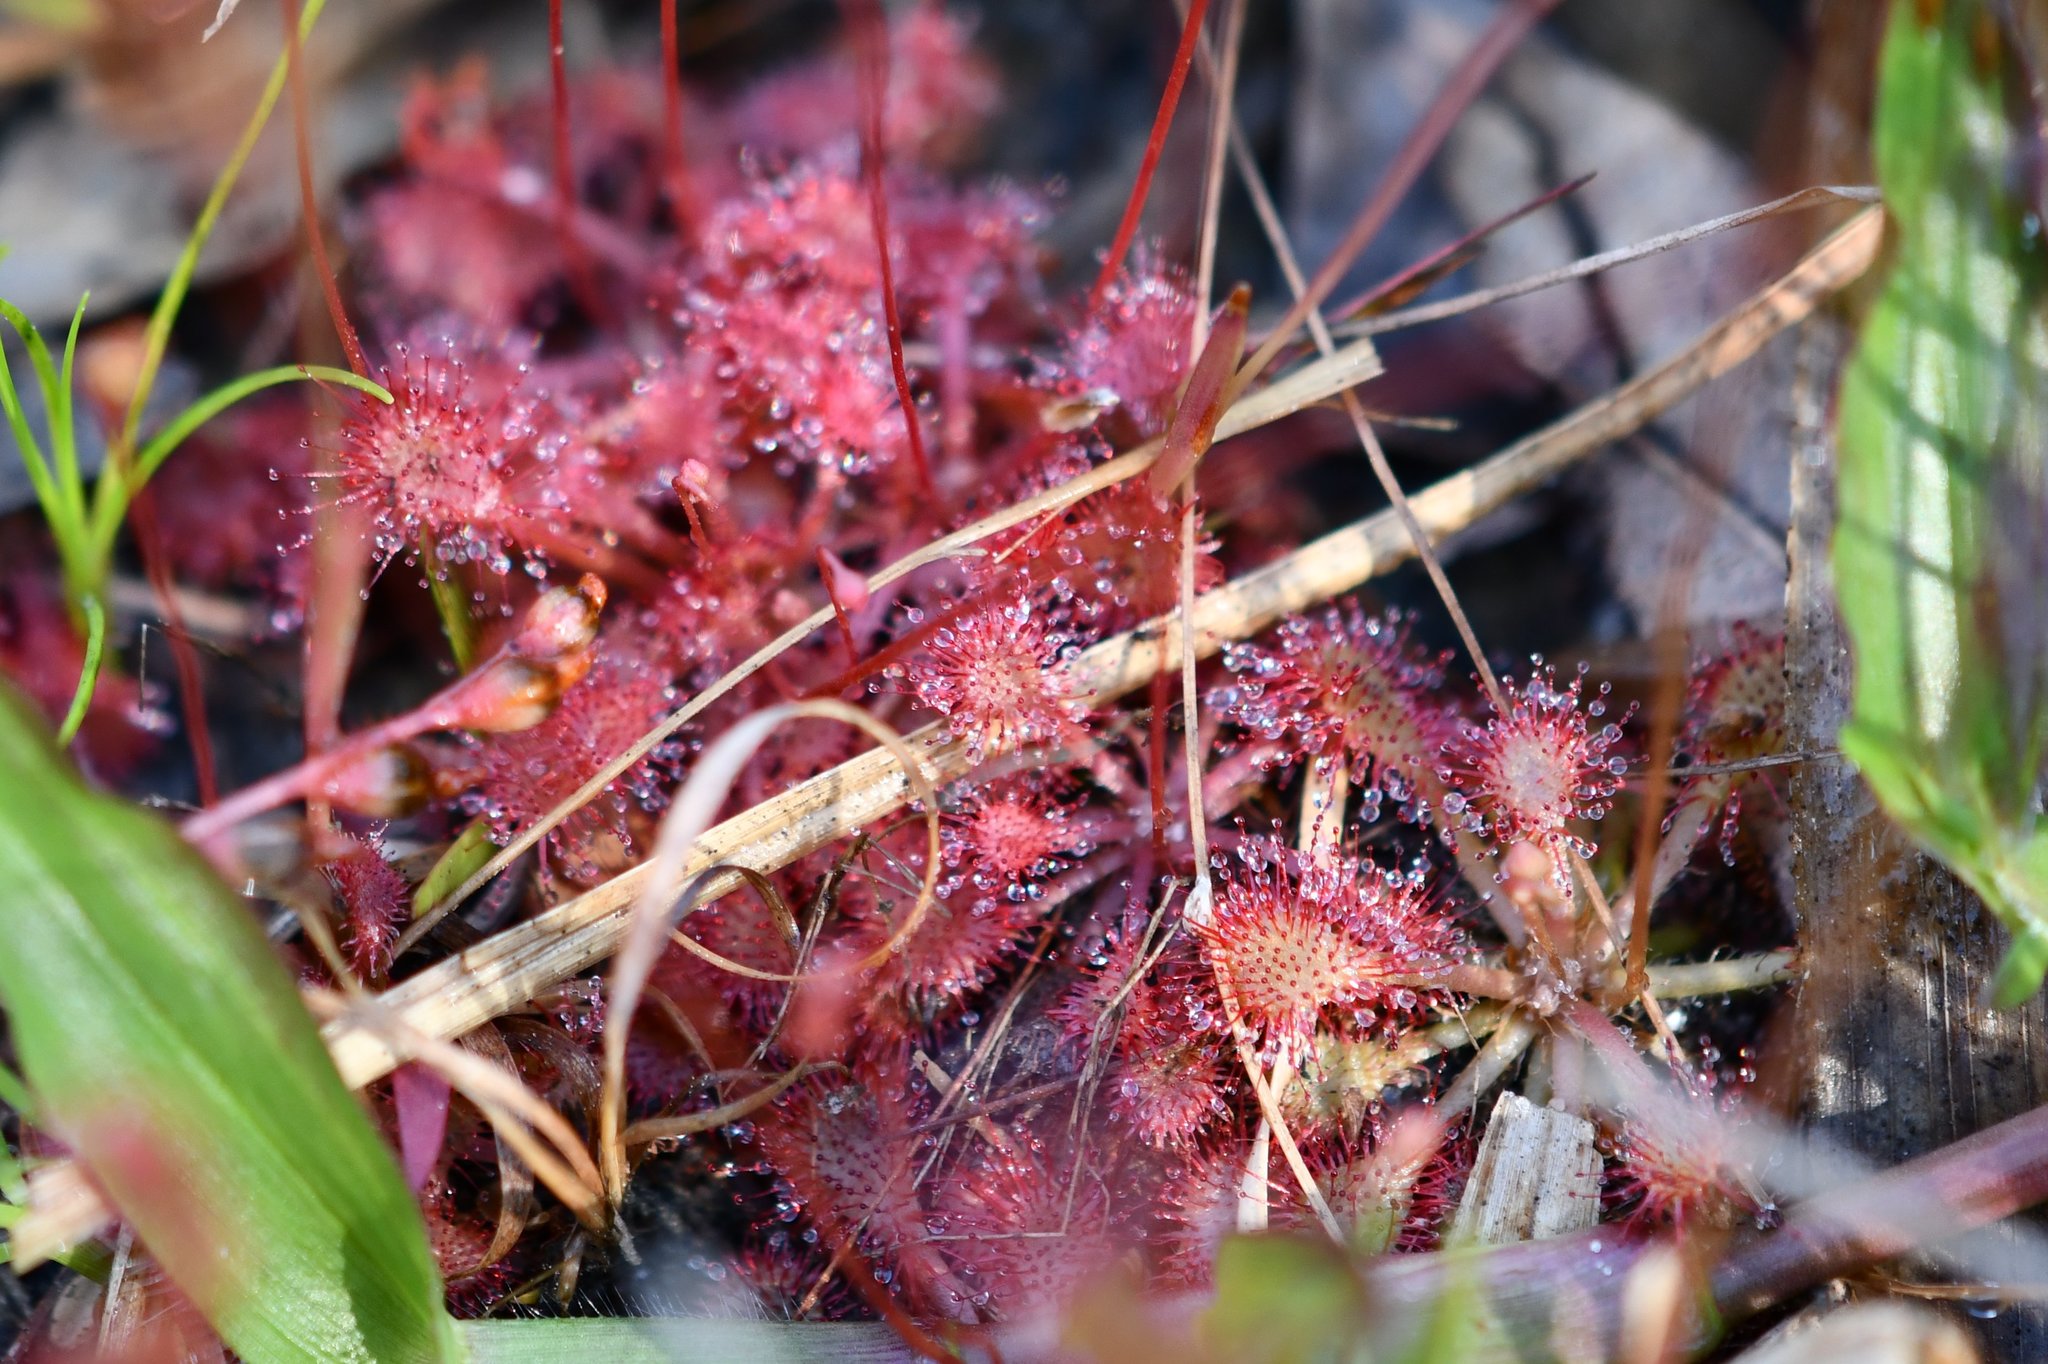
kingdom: Plantae
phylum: Tracheophyta
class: Magnoliopsida
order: Caryophyllales
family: Droseraceae
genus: Drosera
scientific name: Drosera capillaris
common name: Pink sundew
